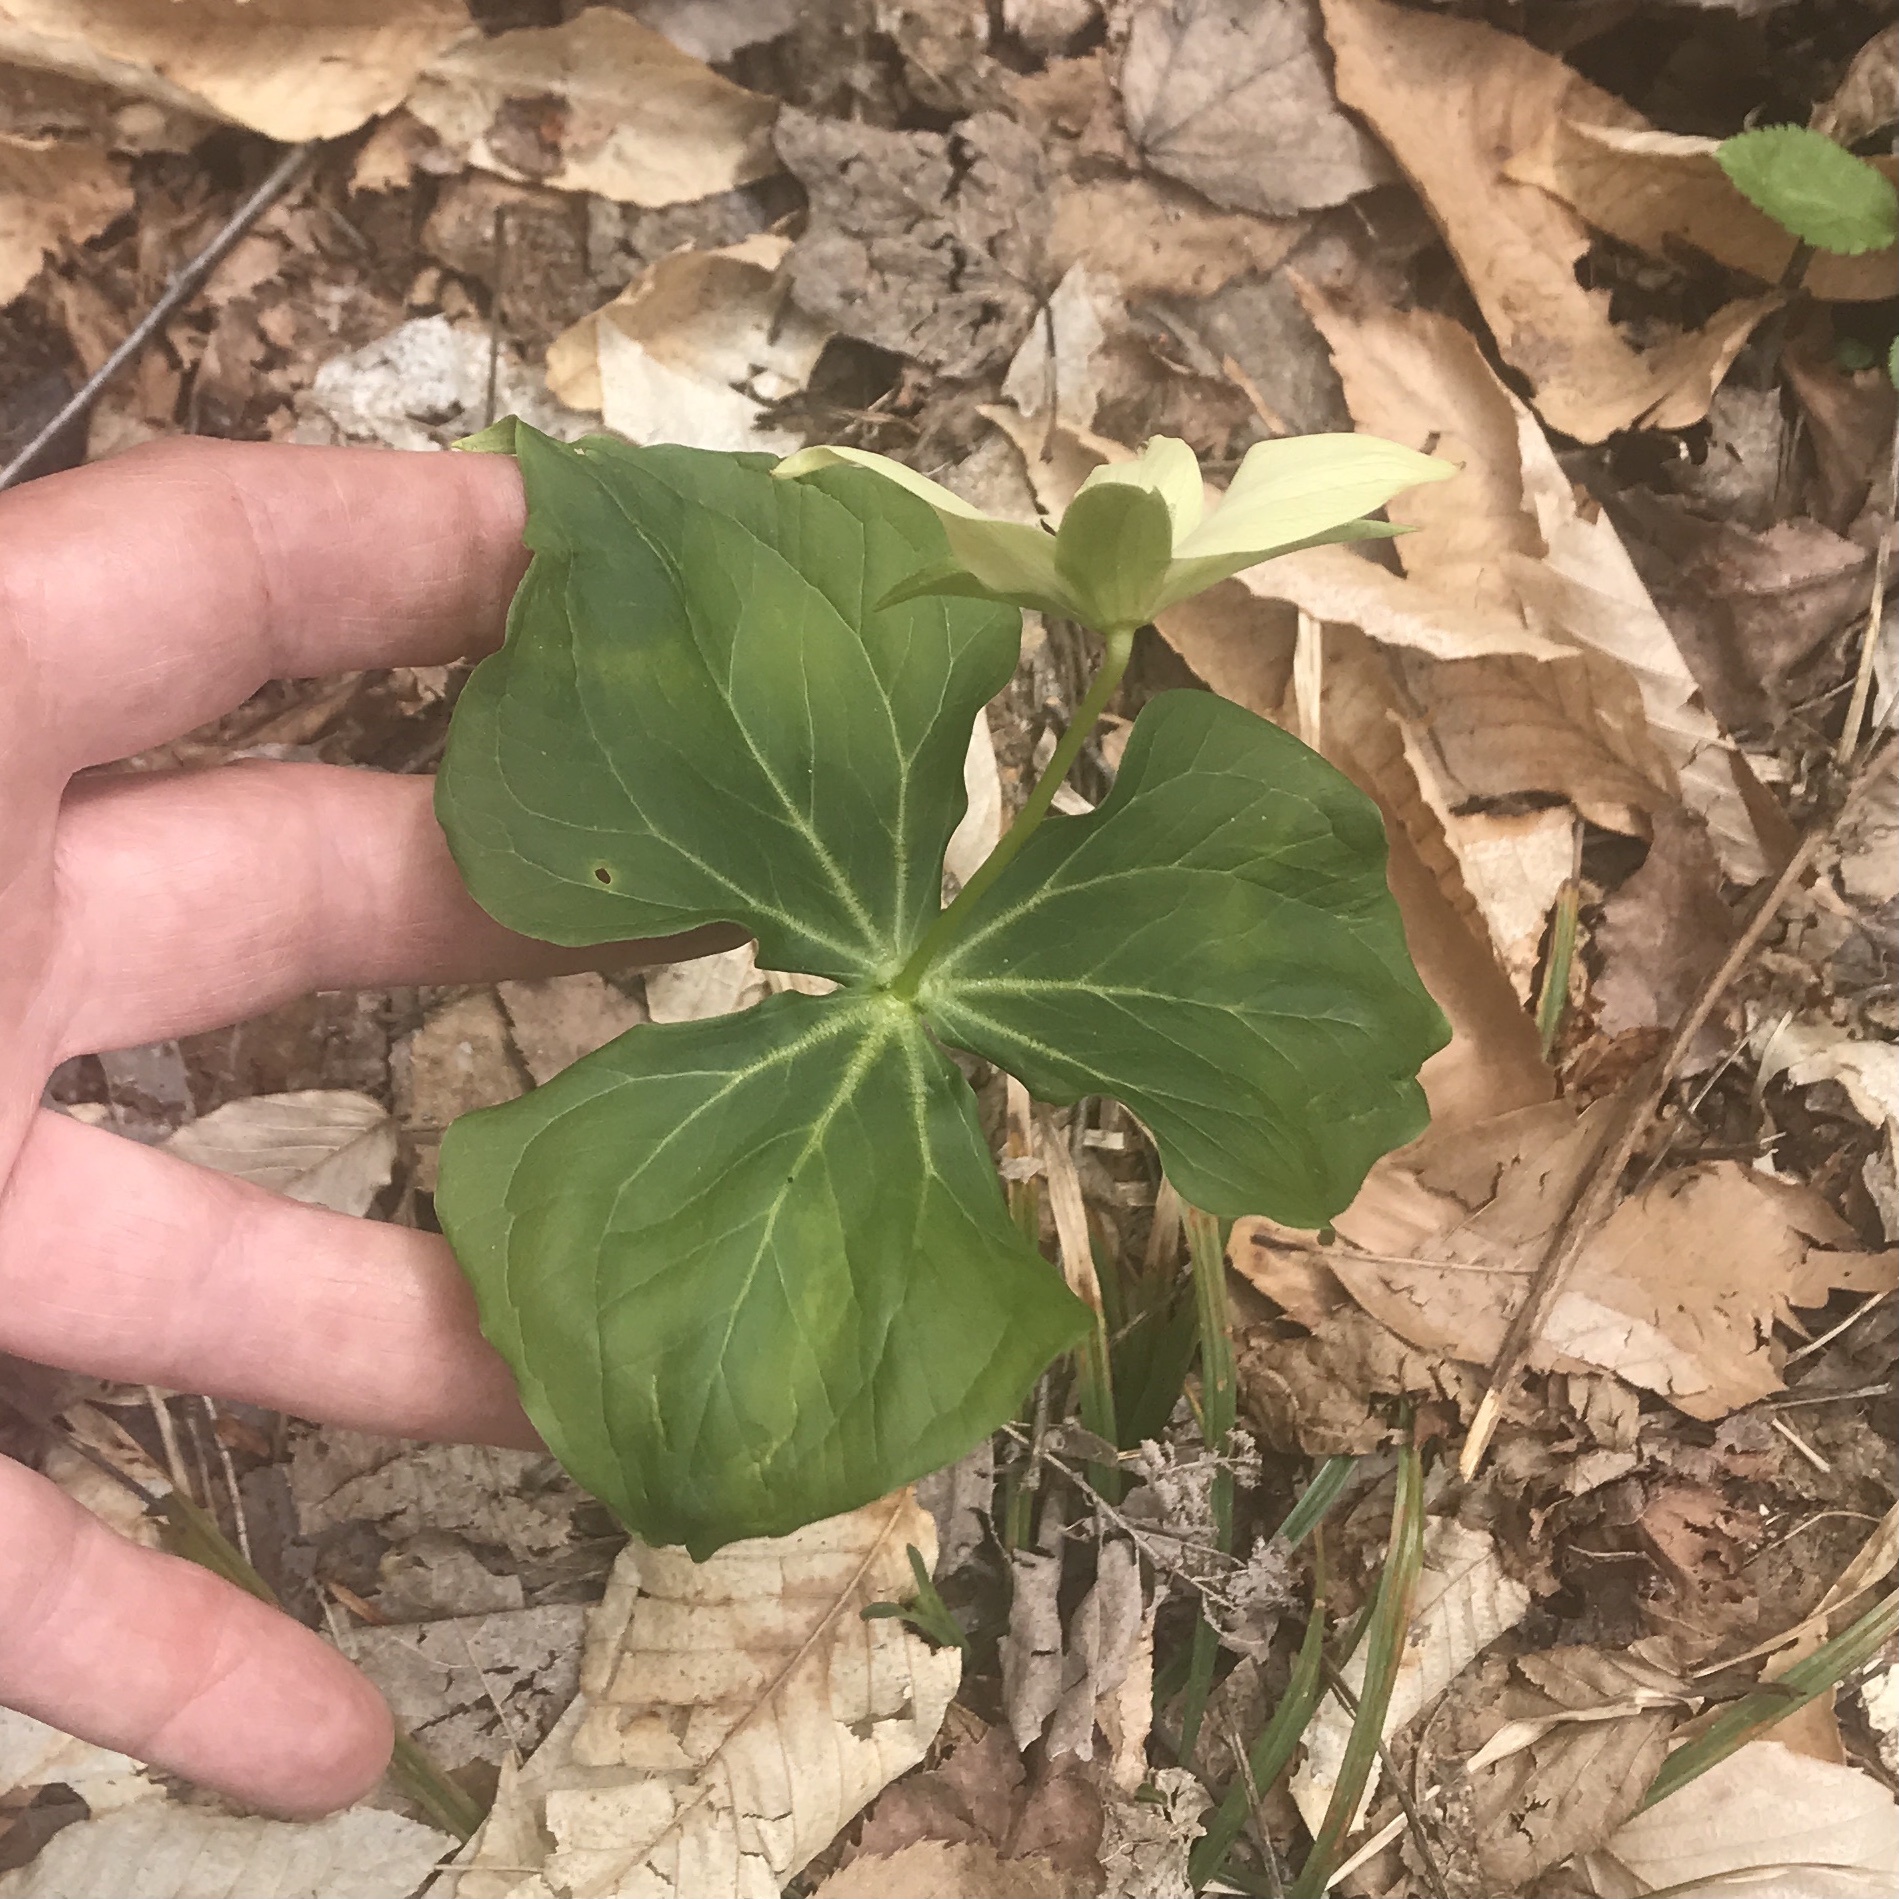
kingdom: Plantae
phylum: Tracheophyta
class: Liliopsida
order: Liliales
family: Melanthiaceae
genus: Trillium
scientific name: Trillium erectum
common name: Purple trillium
